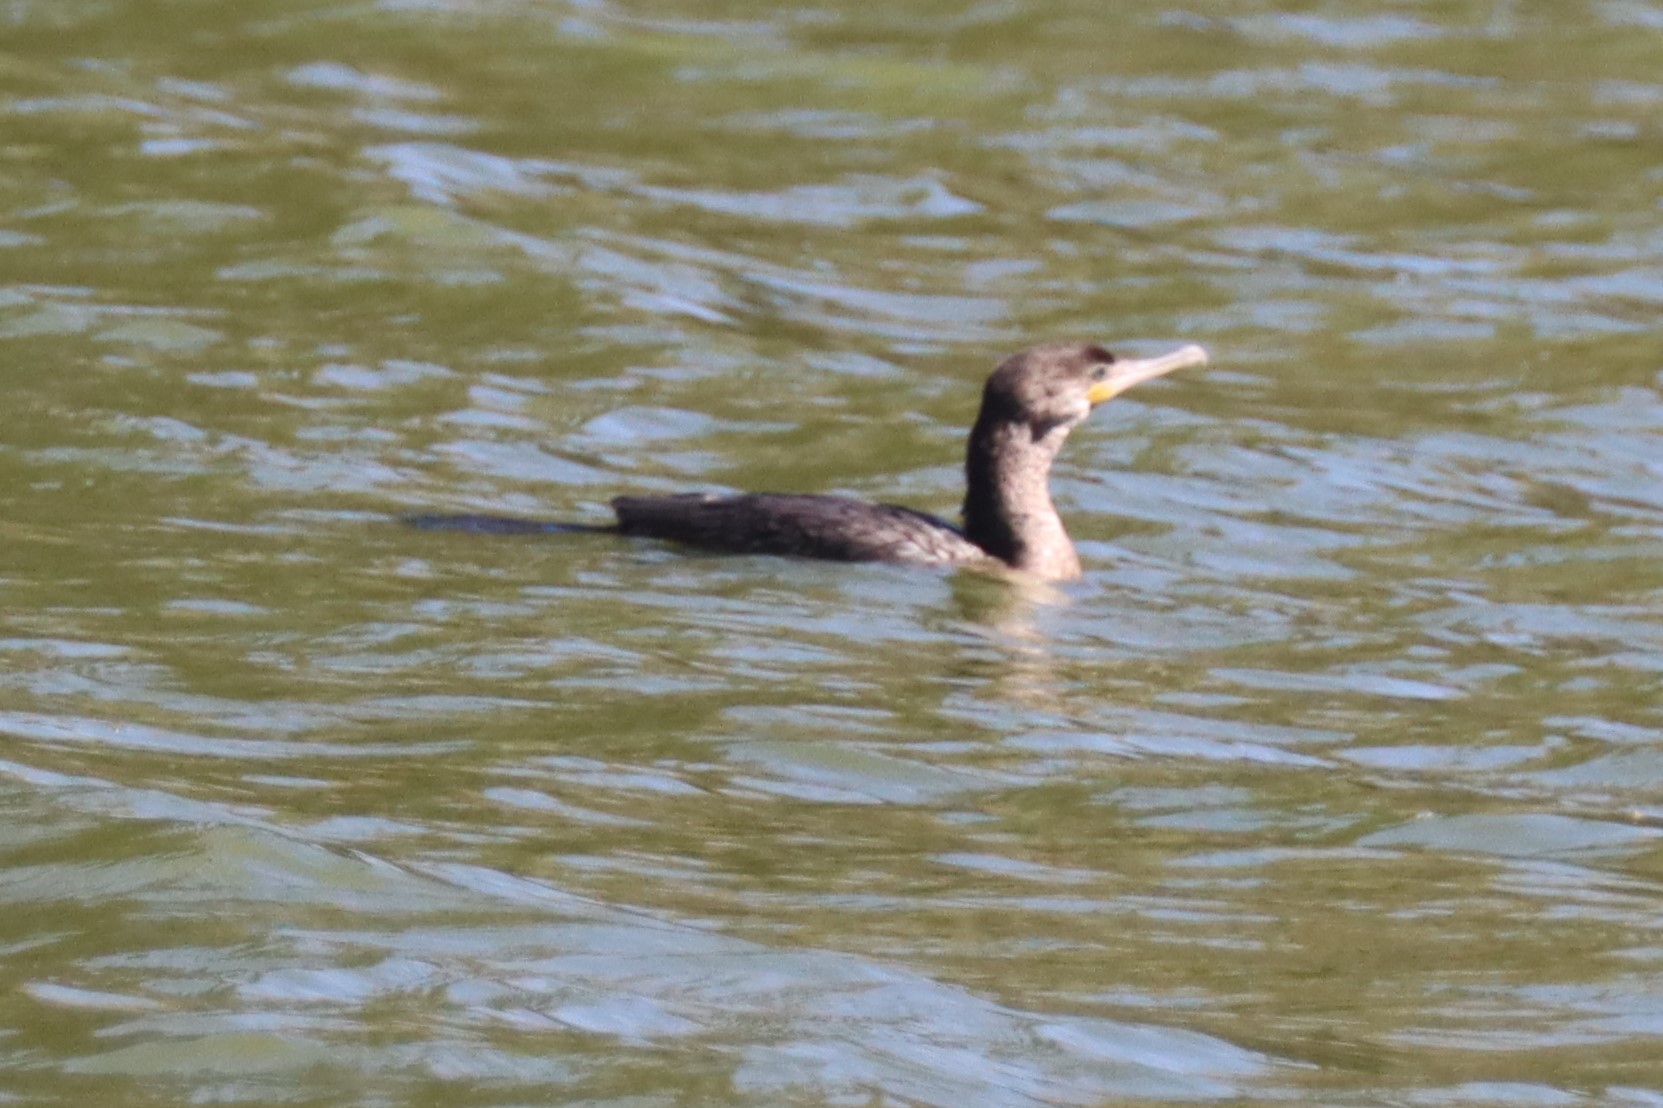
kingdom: Animalia
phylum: Chordata
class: Aves
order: Suliformes
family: Phalacrocoracidae
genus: Phalacrocorax
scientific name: Phalacrocorax brasilianus
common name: Neotropic cormorant
